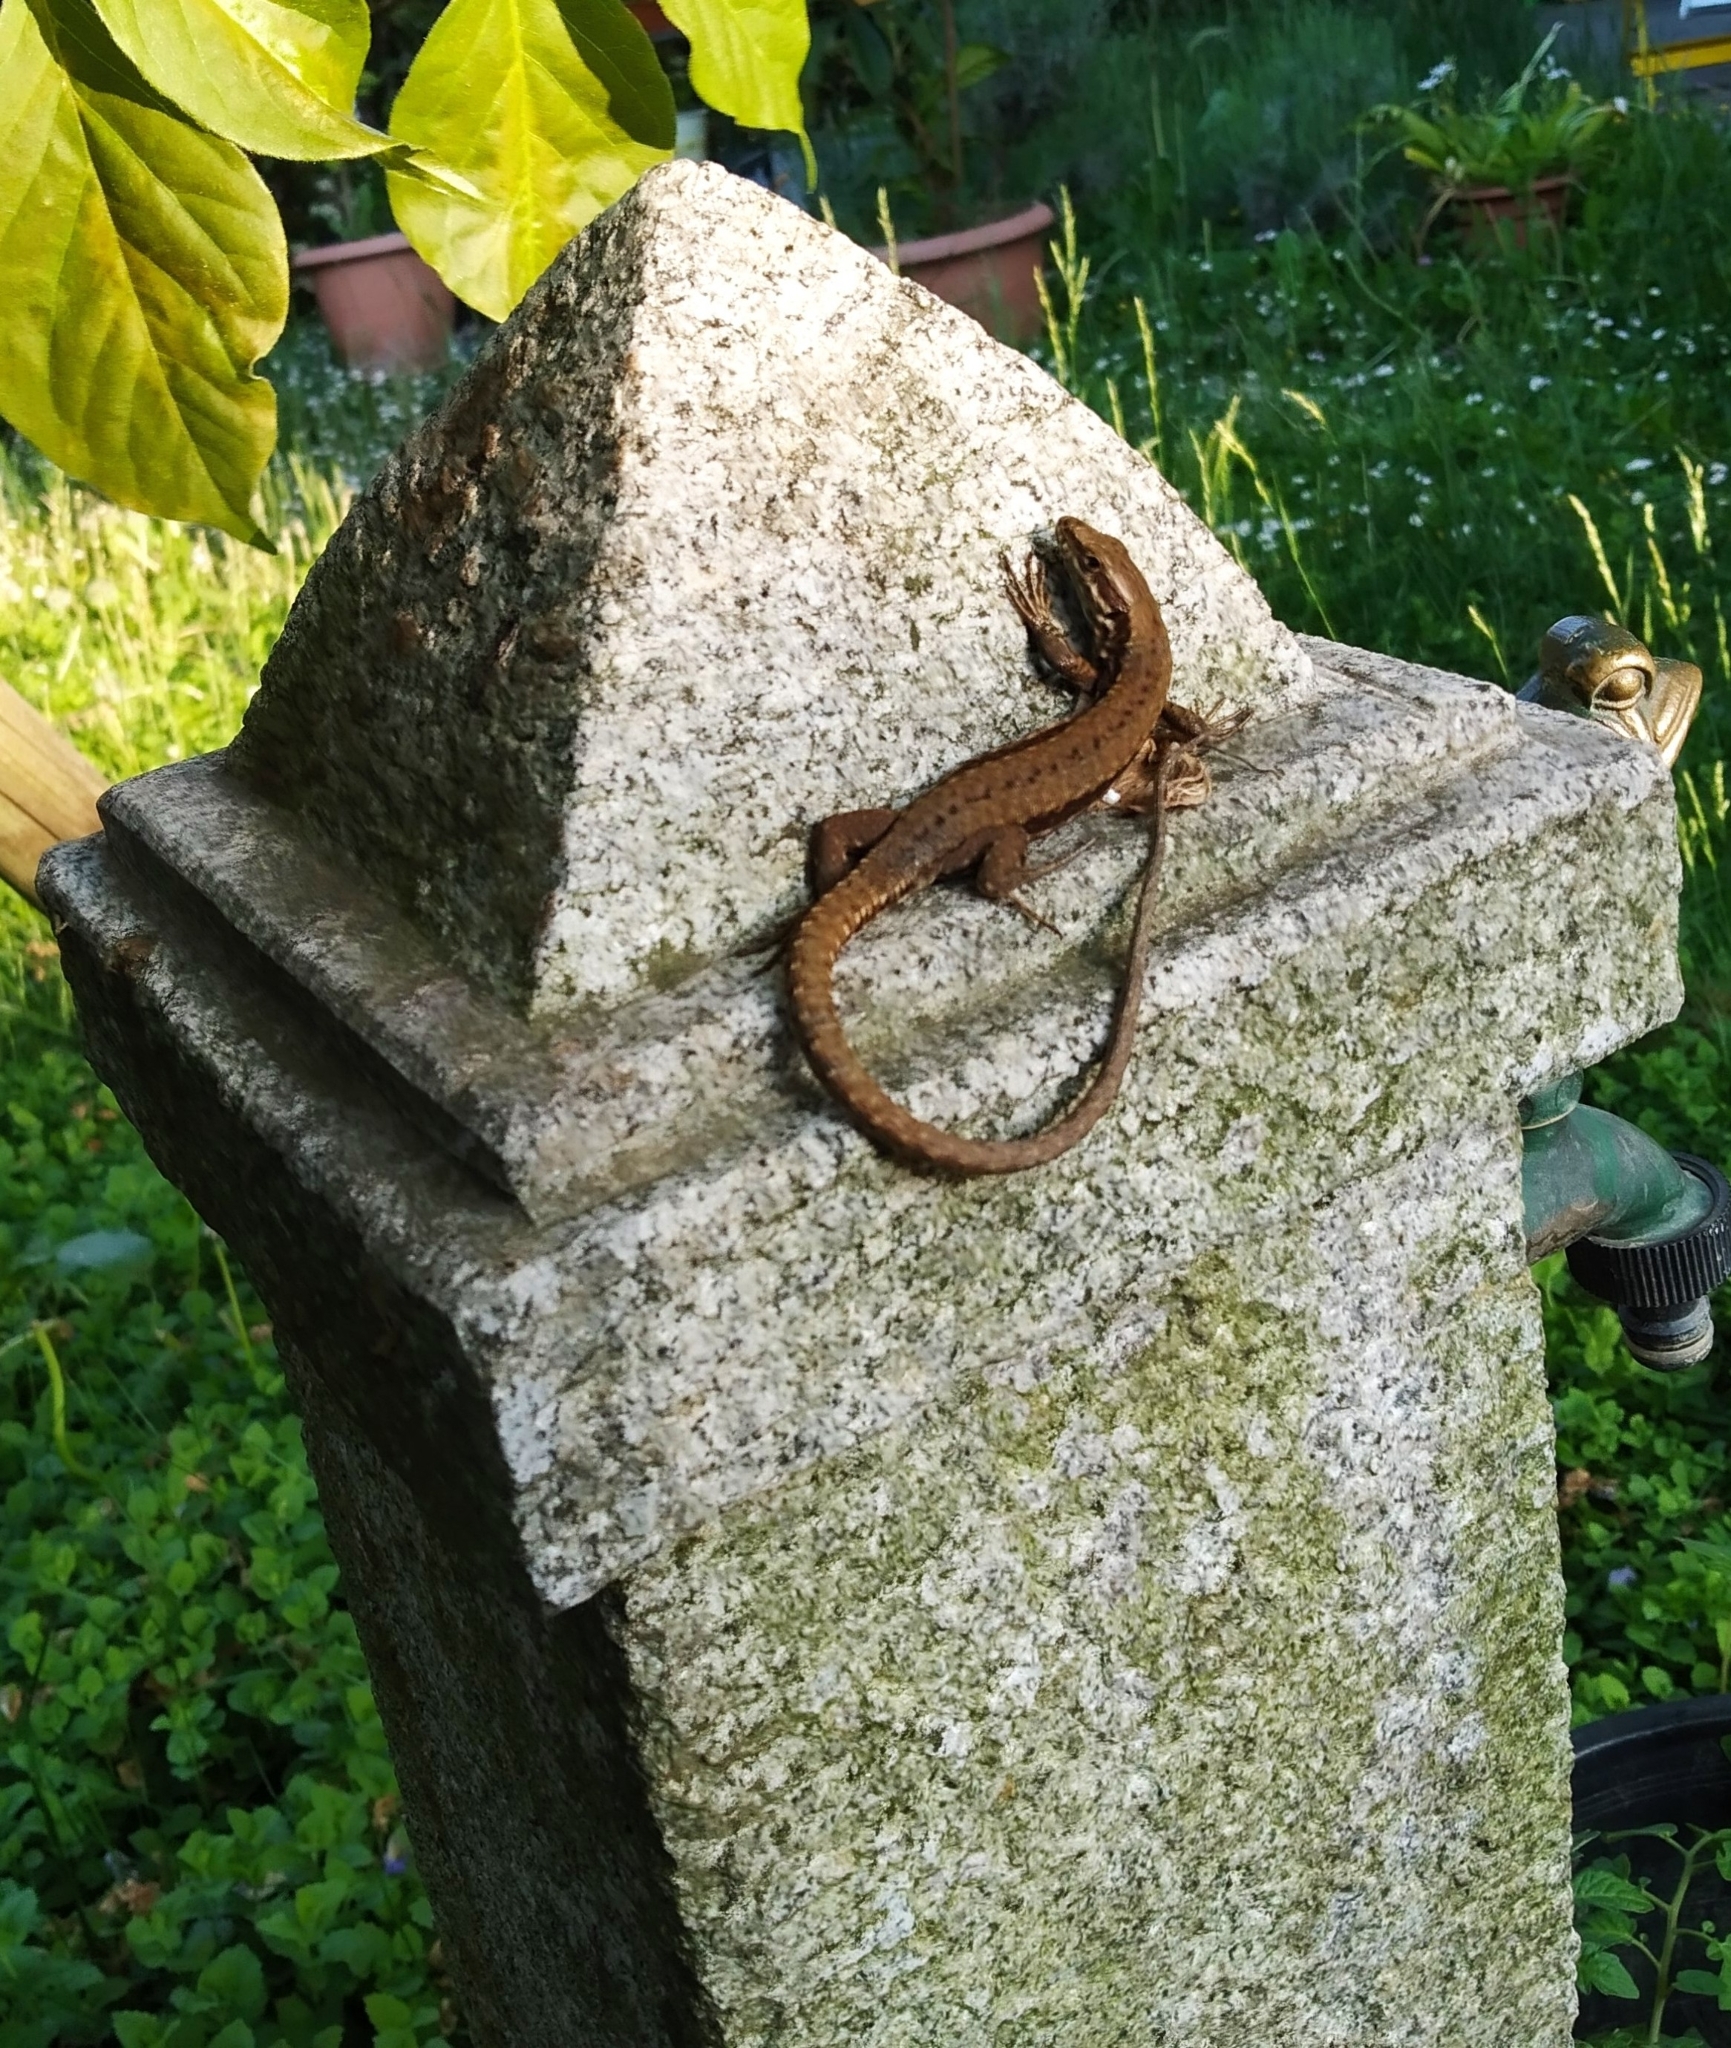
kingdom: Animalia
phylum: Chordata
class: Squamata
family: Lacertidae
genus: Podarcis
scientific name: Podarcis muralis
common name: Common wall lizard
